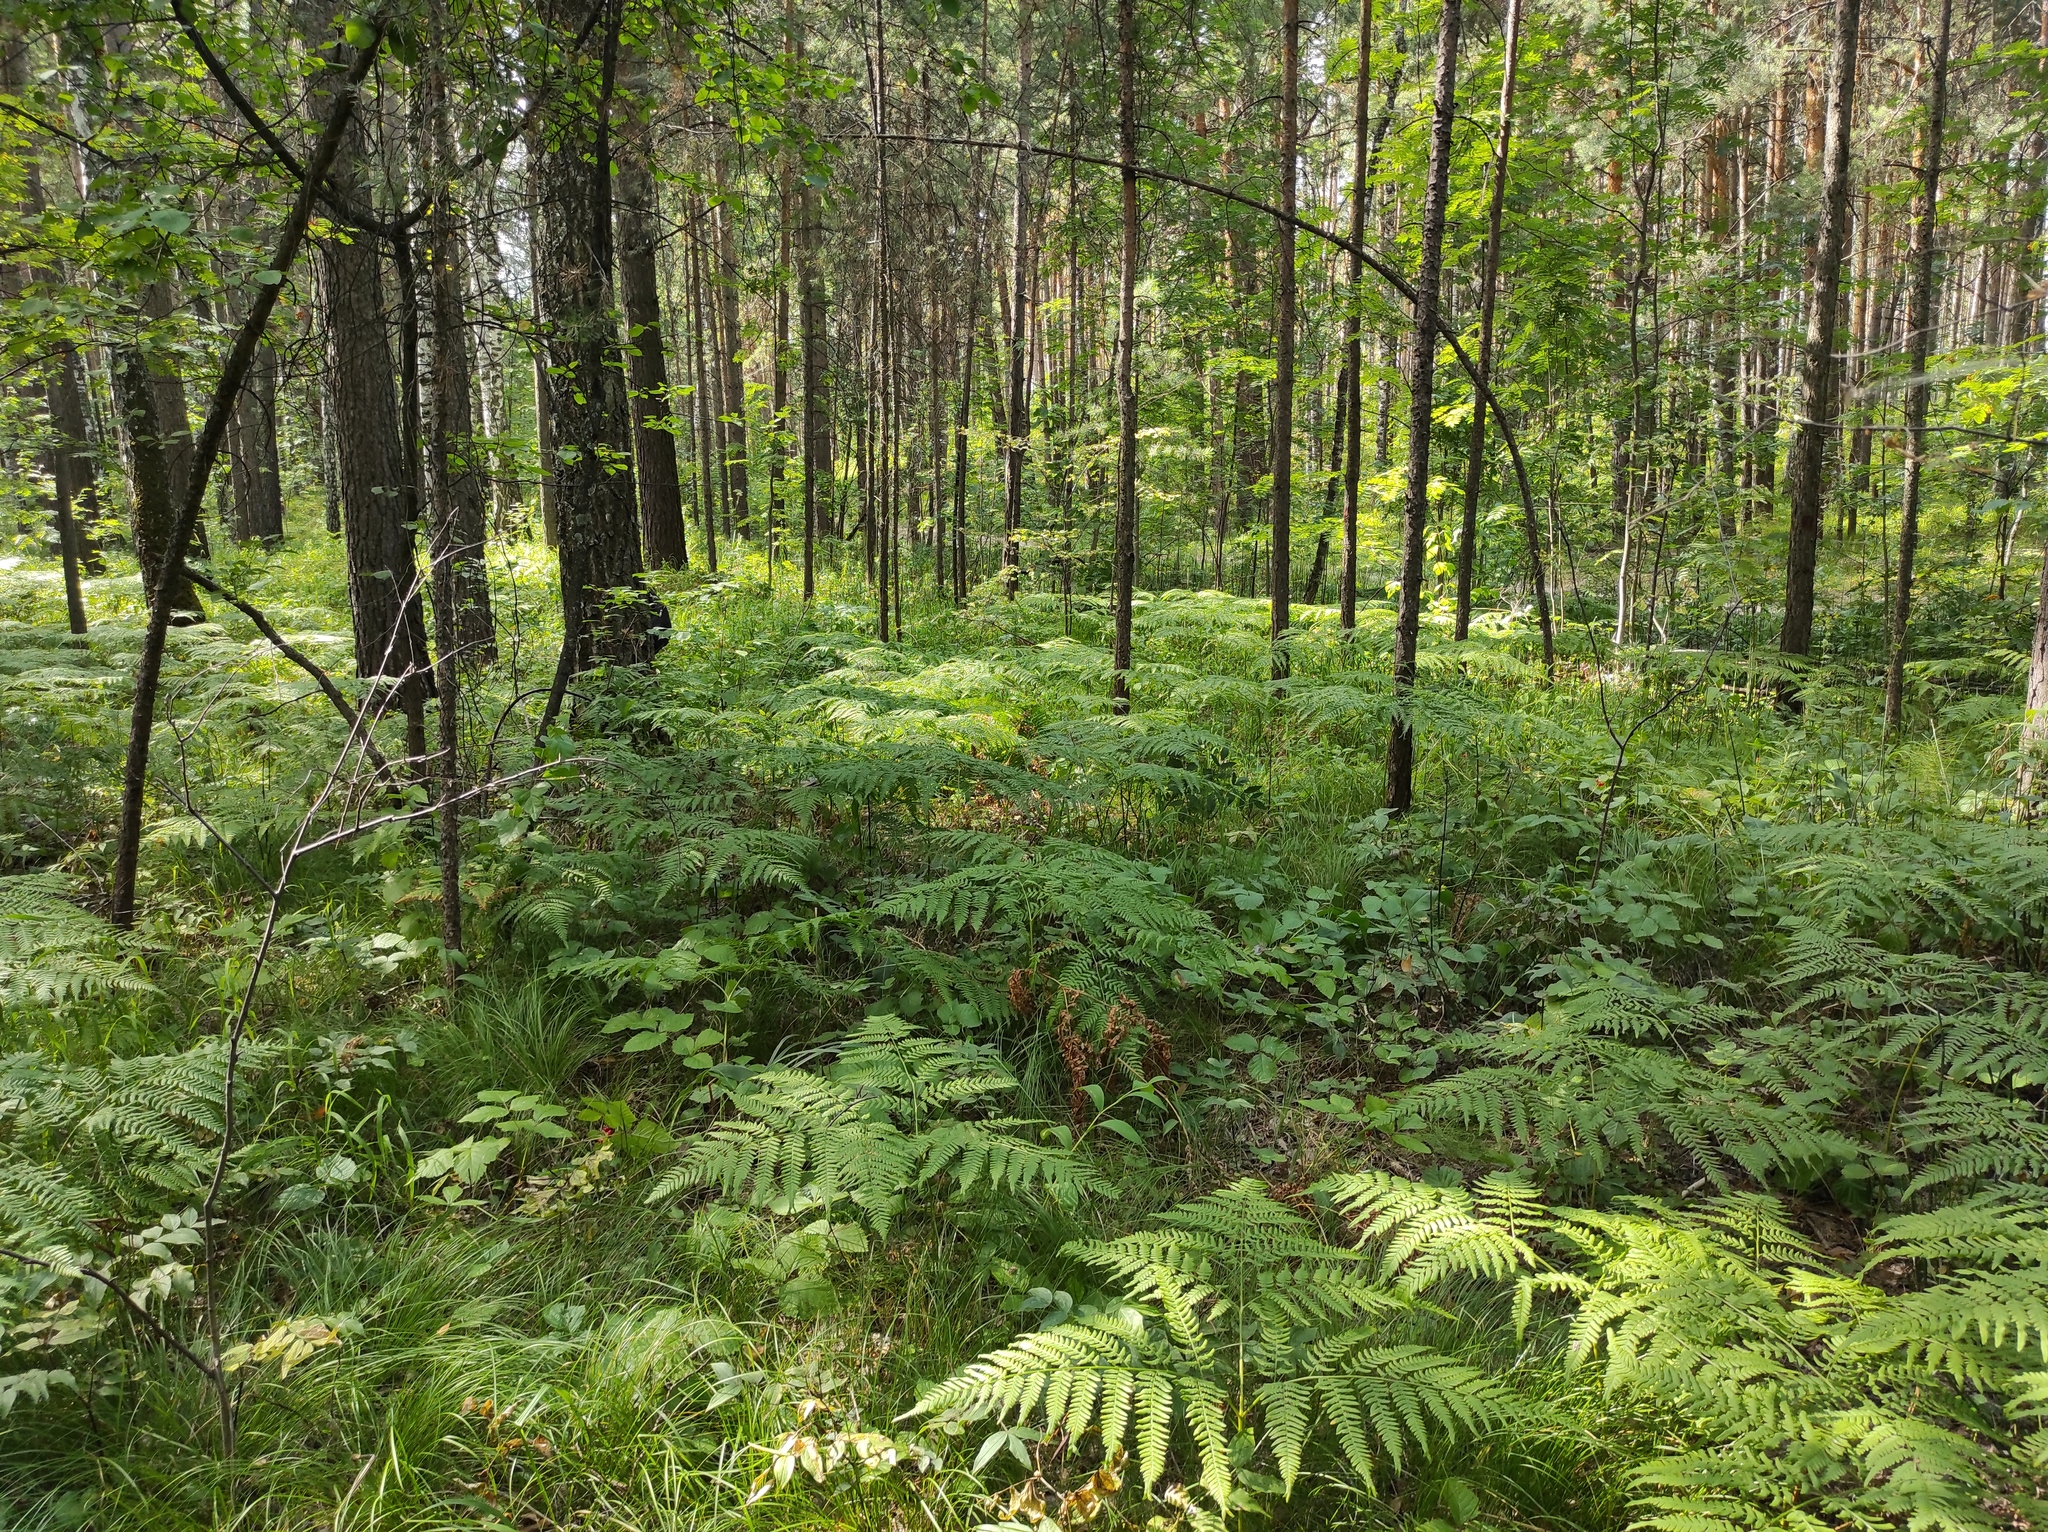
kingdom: Plantae
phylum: Tracheophyta
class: Liliopsida
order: Asparagales
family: Orchidaceae
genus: Hemipilia
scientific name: Hemipilia cucullata
